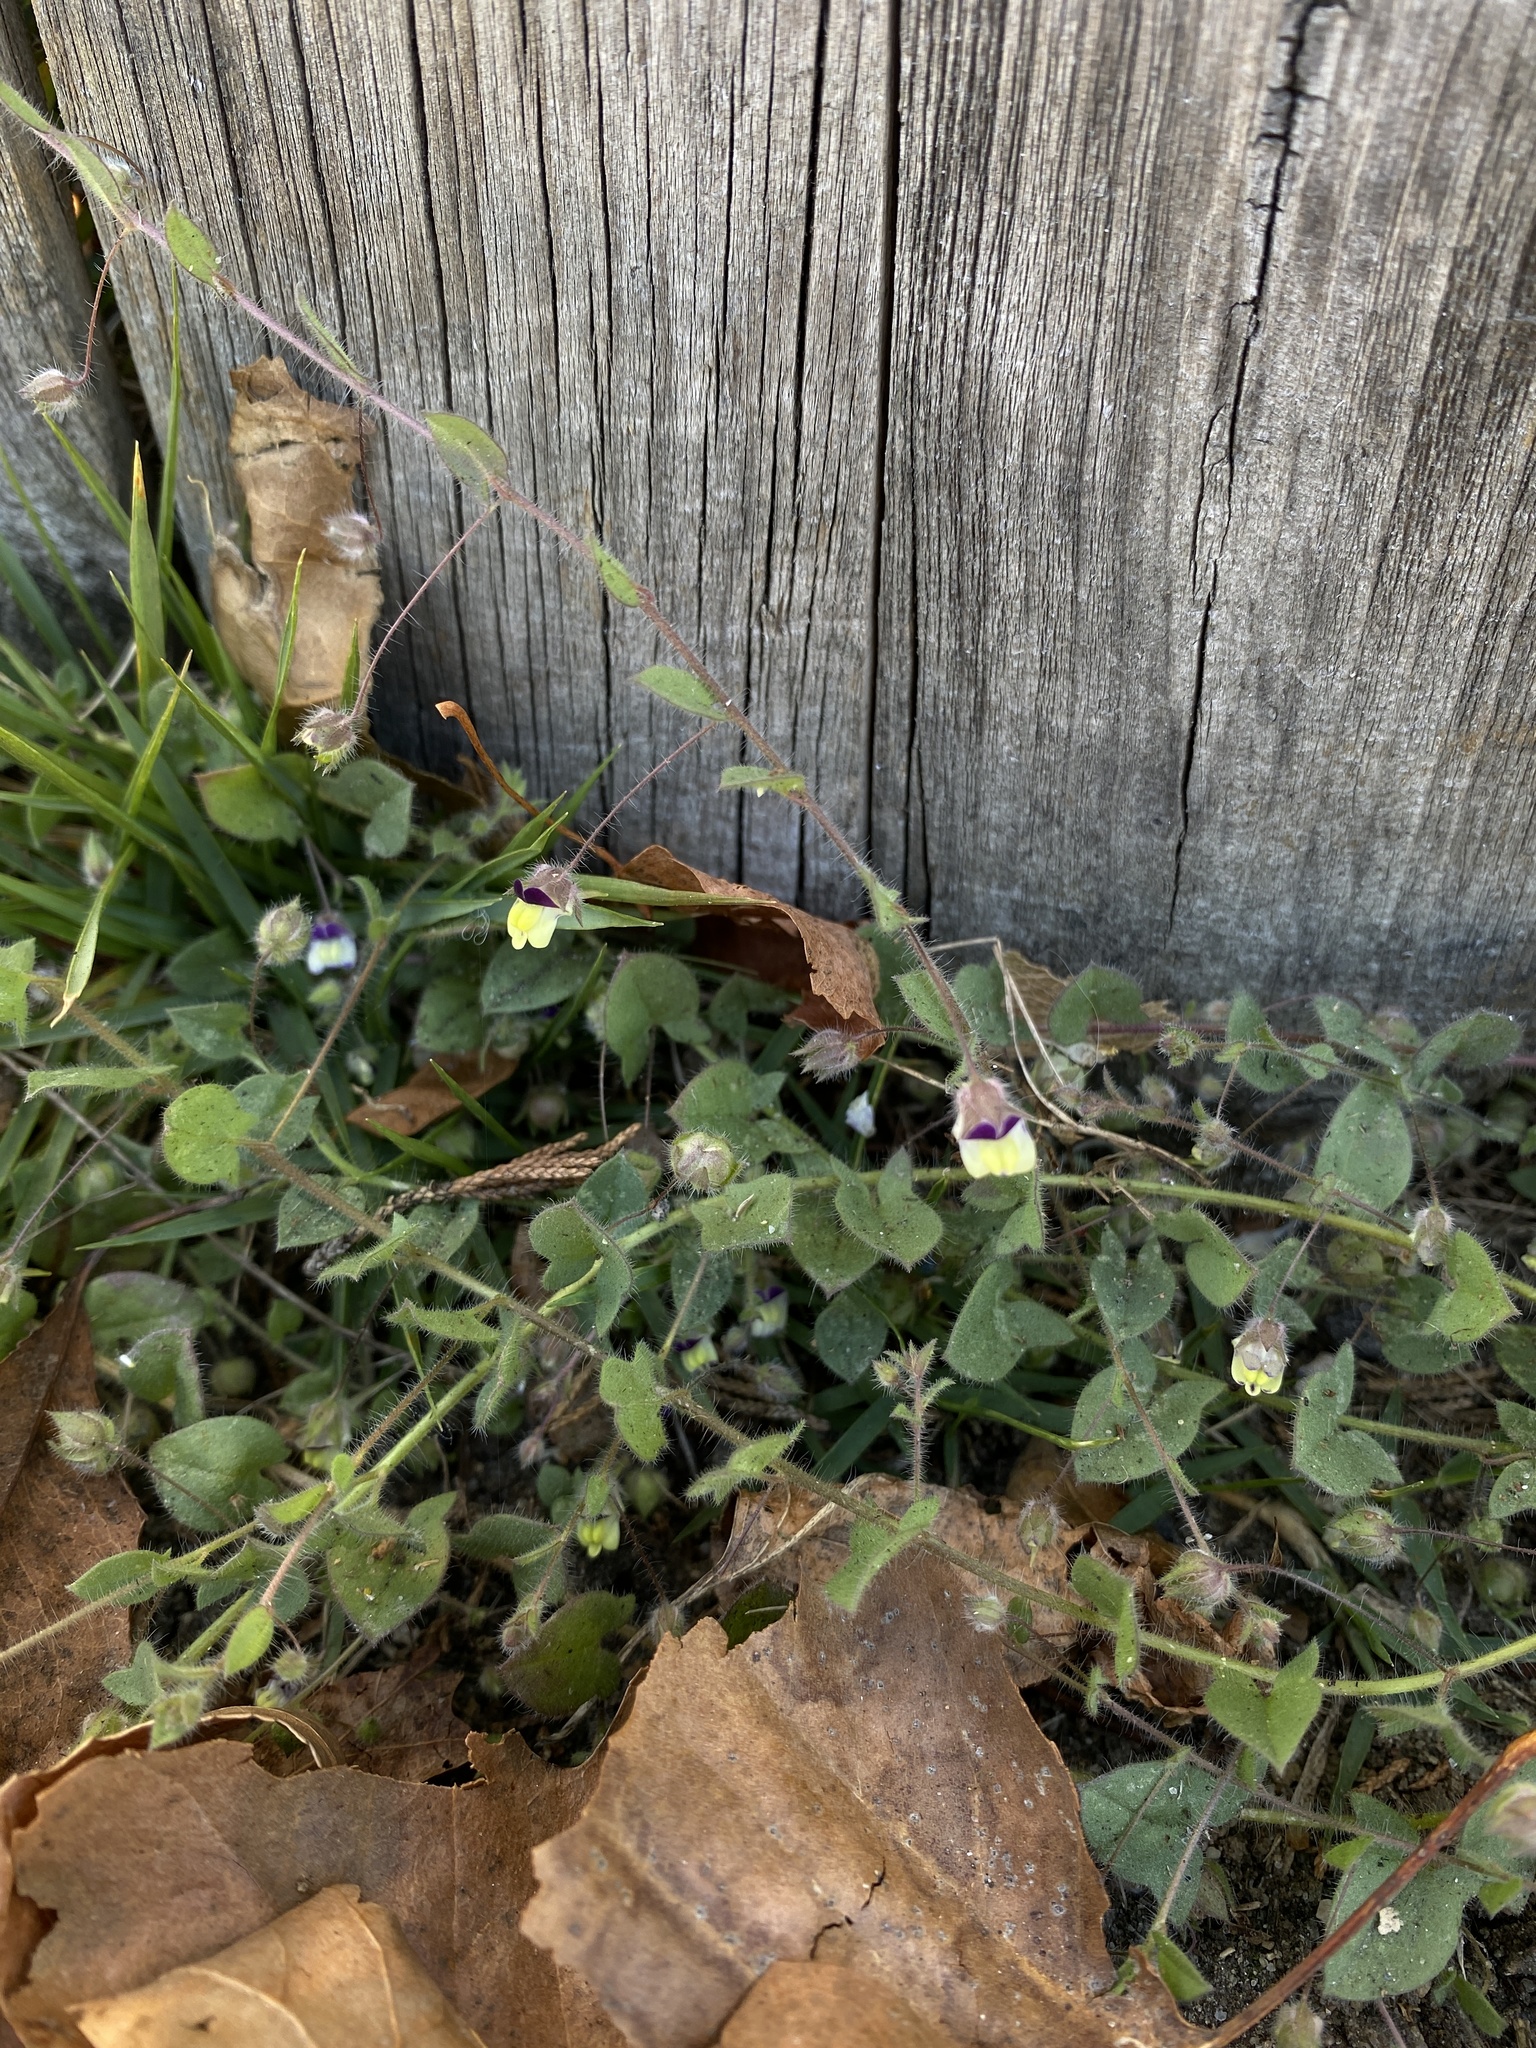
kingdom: Plantae
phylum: Tracheophyta
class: Magnoliopsida
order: Lamiales
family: Plantaginaceae
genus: Kickxia
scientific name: Kickxia elatine
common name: Sharp-leaved fluellen
